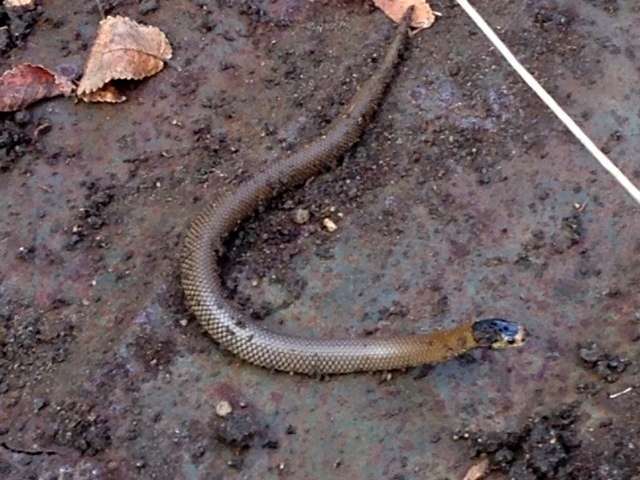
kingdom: Animalia
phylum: Chordata
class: Squamata
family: Elapidae
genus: Suta
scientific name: Suta flagellum
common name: Little whip snake
